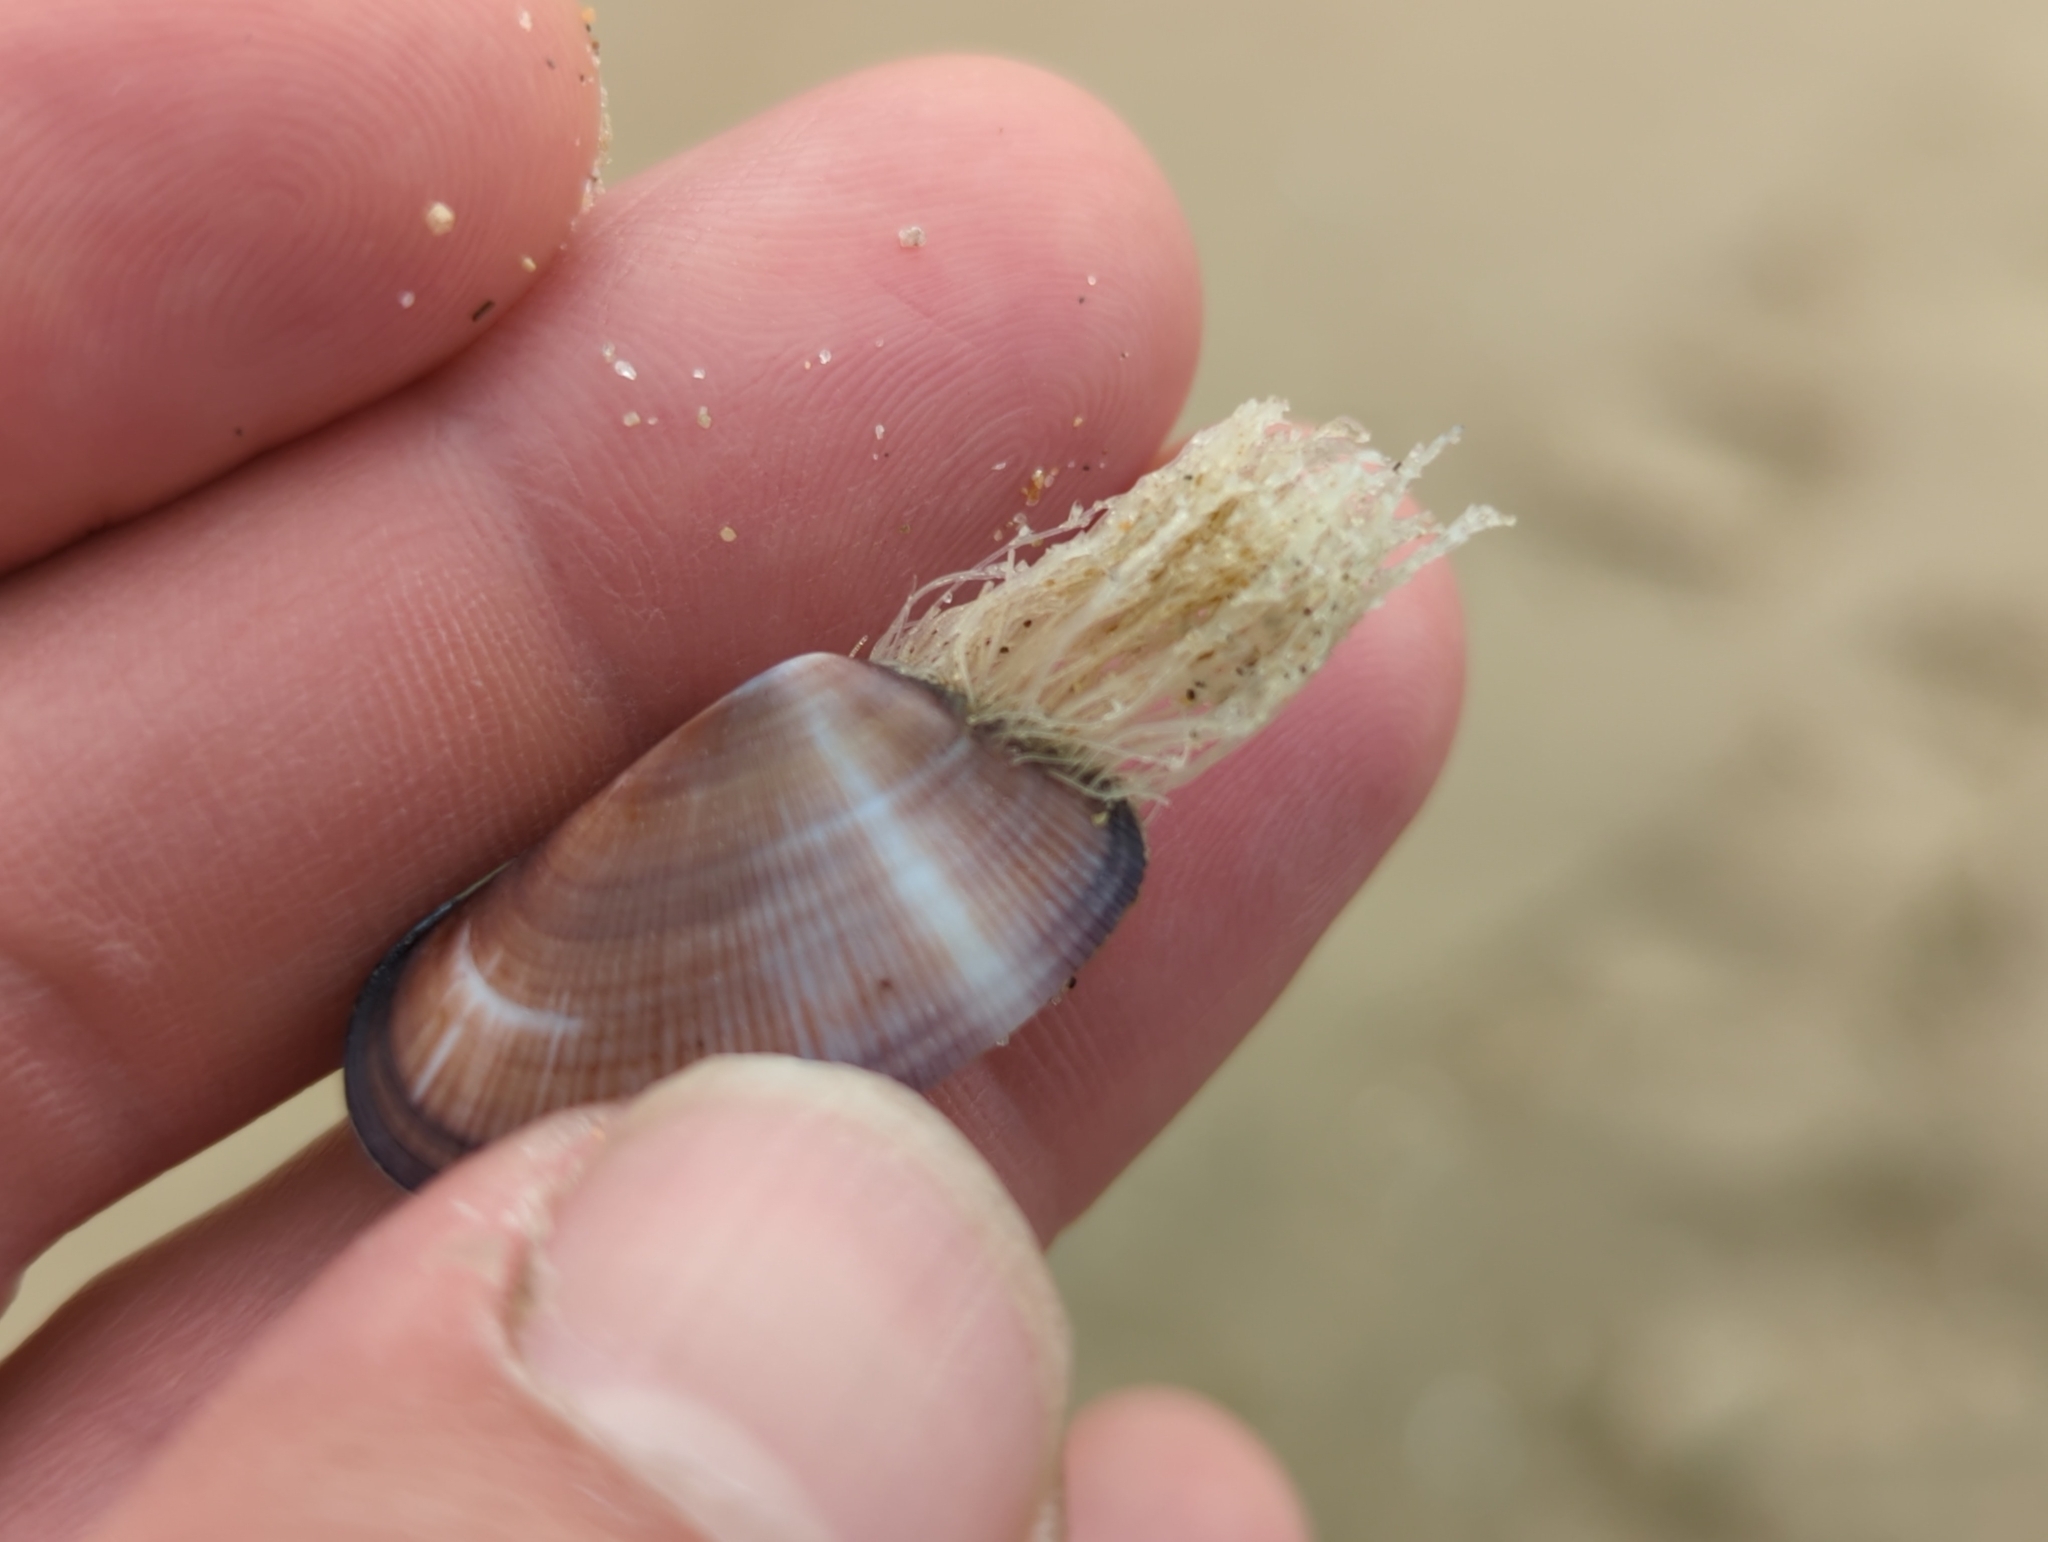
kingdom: Animalia
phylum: Cnidaria
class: Hydrozoa
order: Leptothecata
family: Lovenellidae
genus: Eucheilota
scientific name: Eucheilota bakeri
